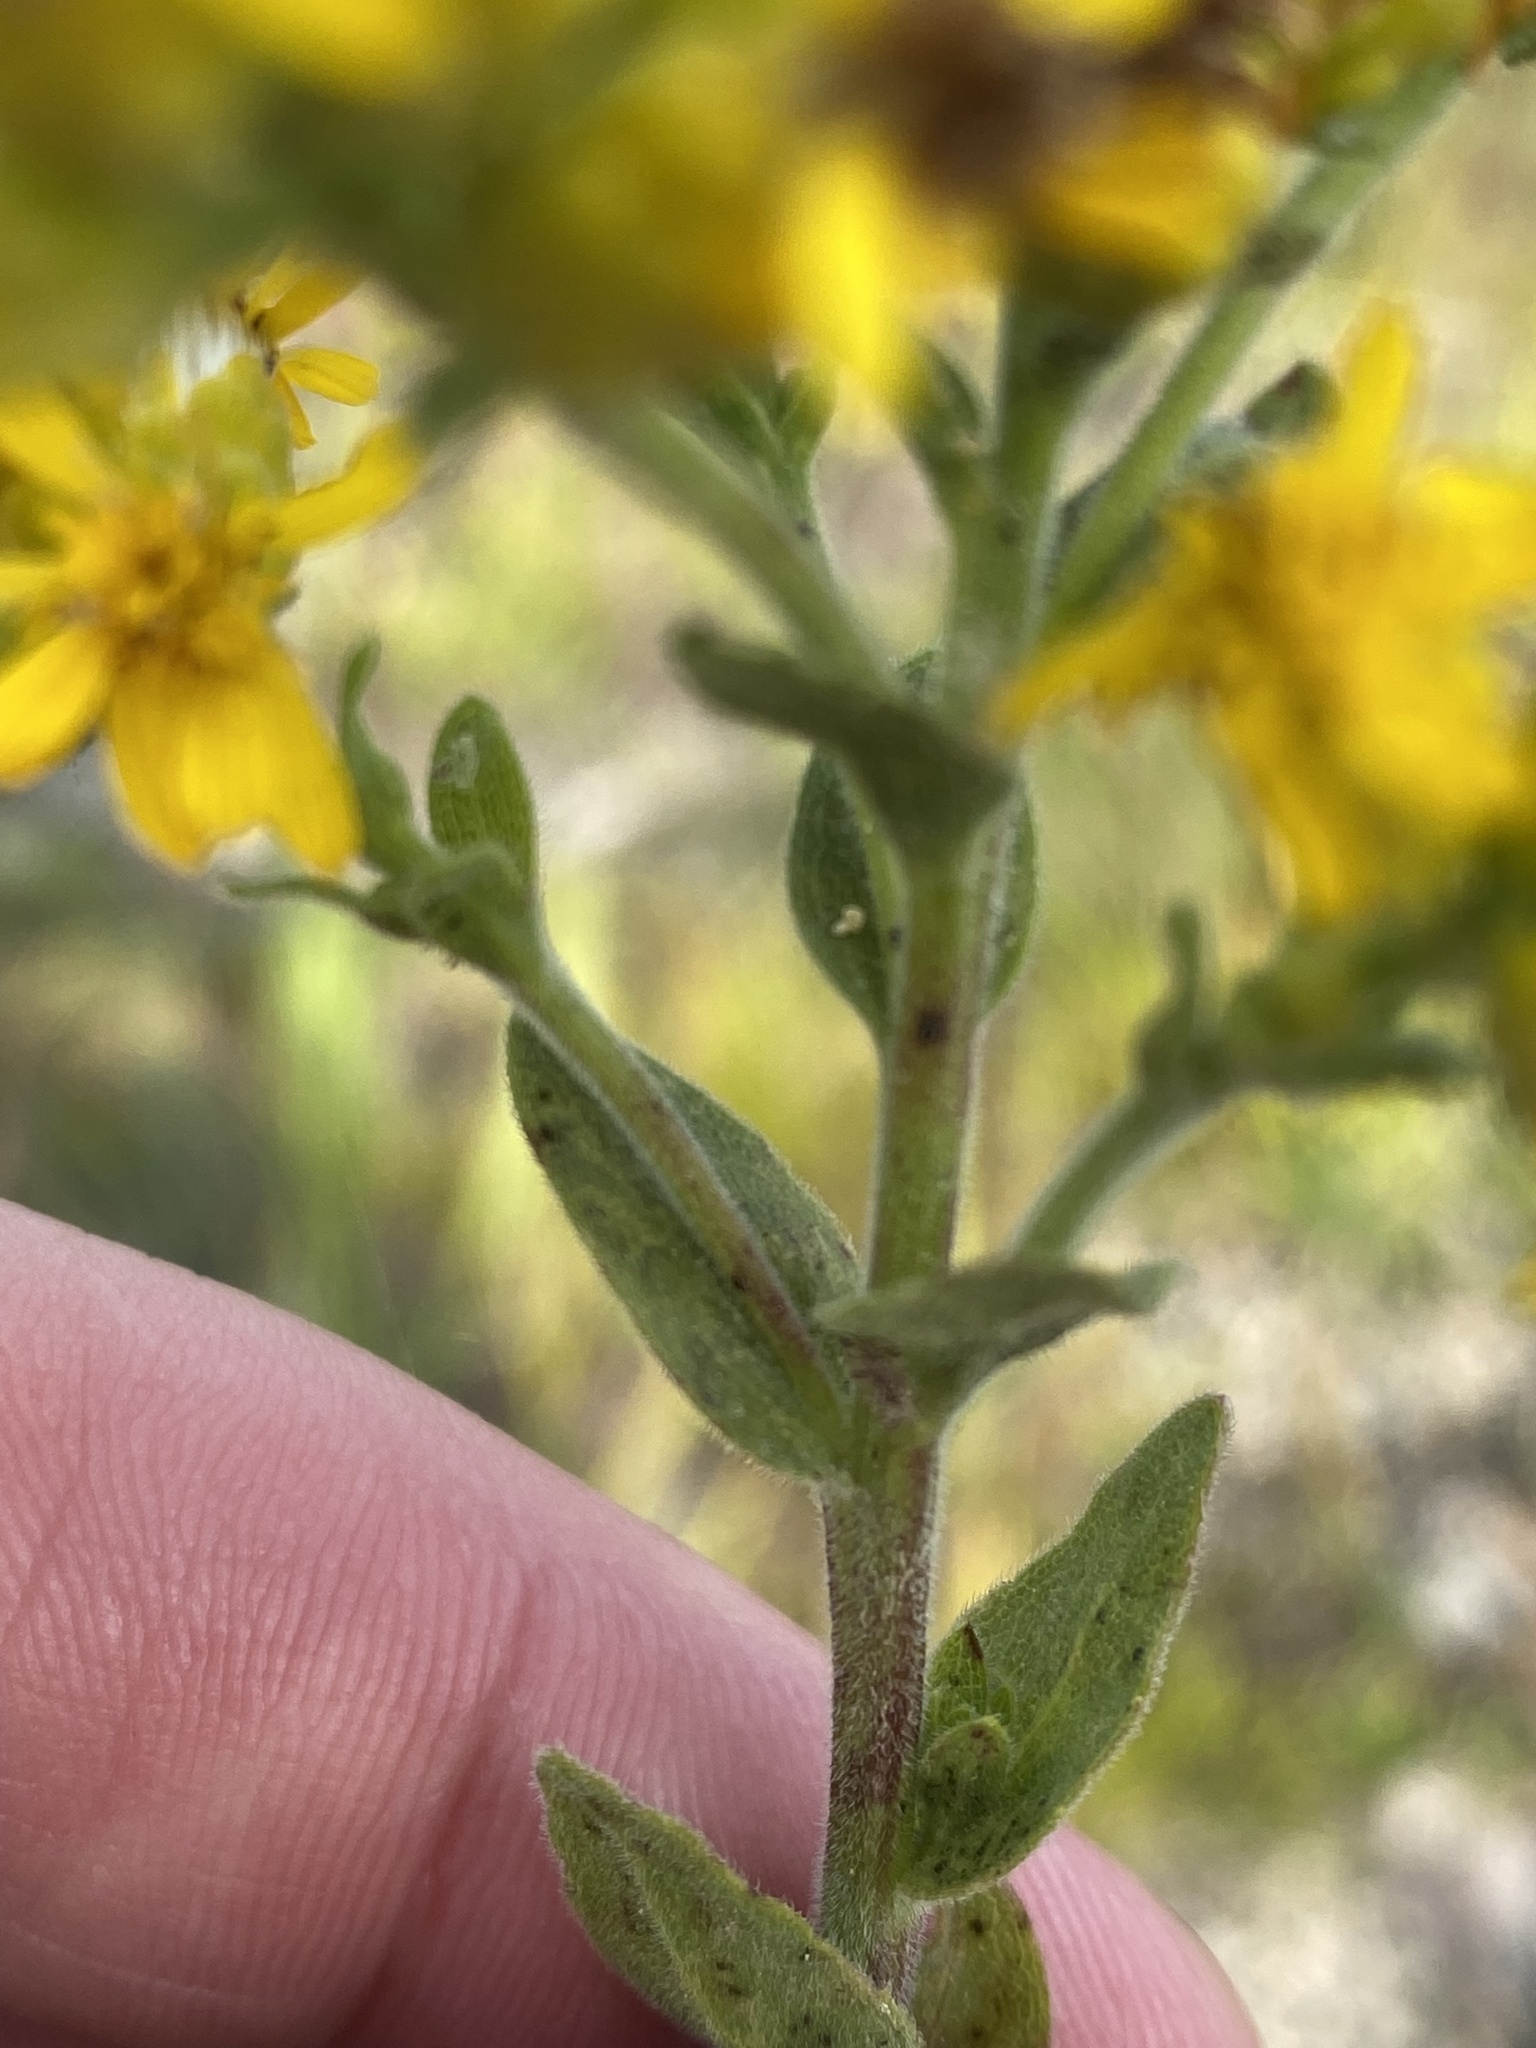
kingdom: Plantae
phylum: Tracheophyta
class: Magnoliopsida
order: Asterales
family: Asteraceae
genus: Solidago
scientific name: Solidago rigida
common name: Rigid goldenrod
